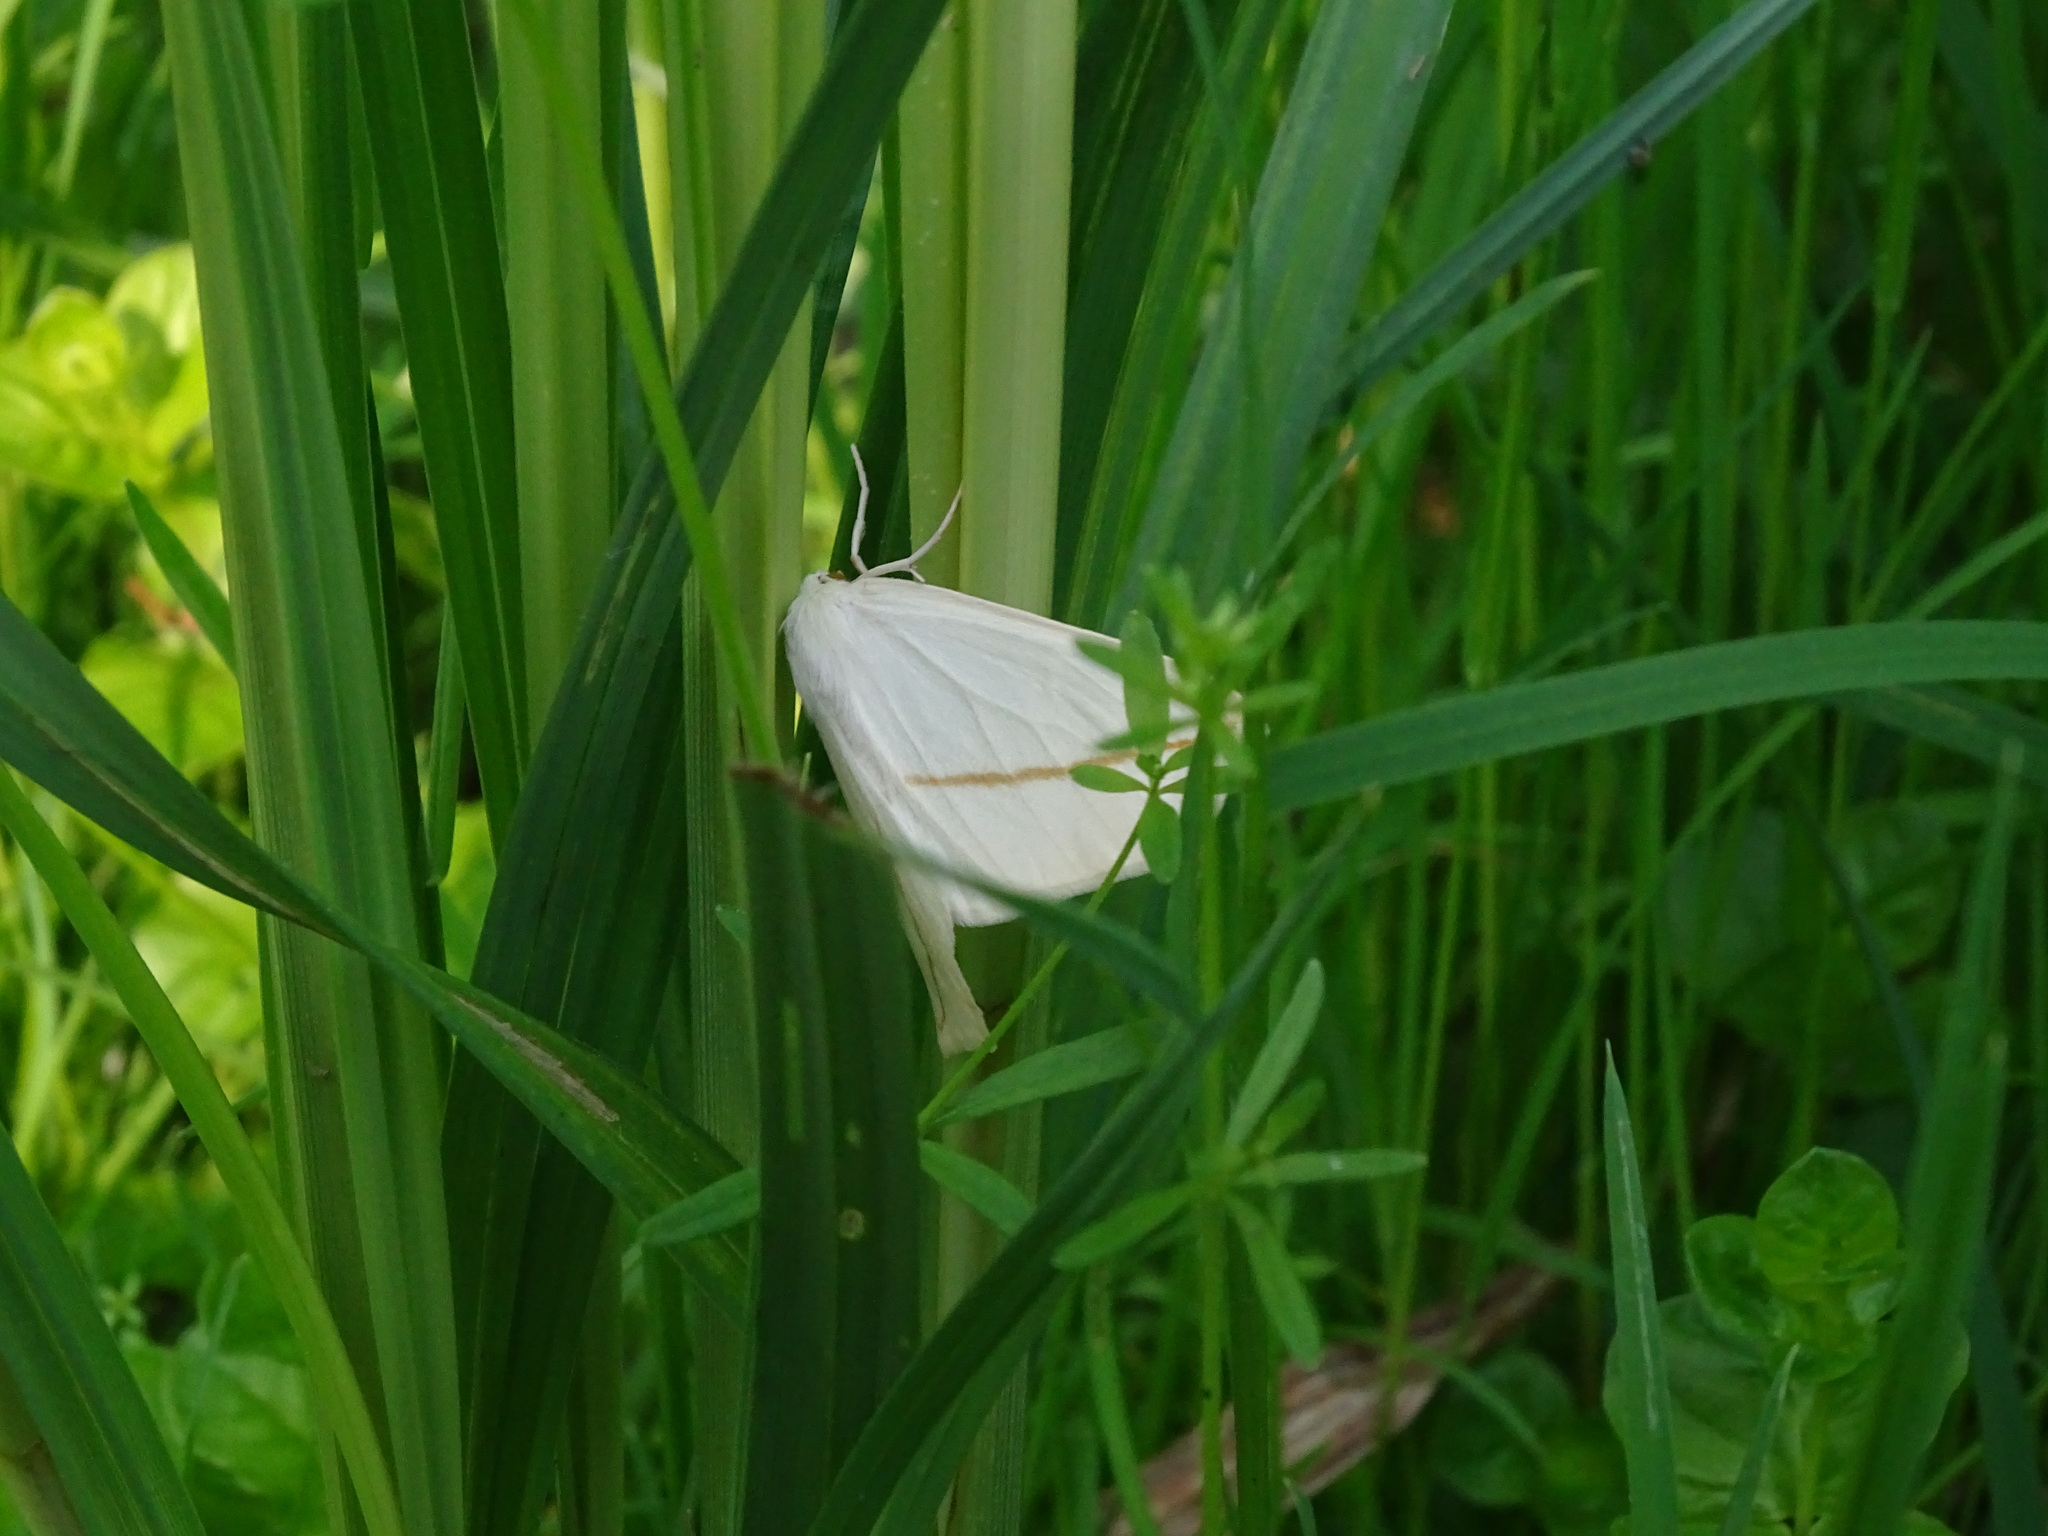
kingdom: Animalia
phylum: Arthropoda
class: Insecta
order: Lepidoptera
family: Geometridae
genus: Tetracis
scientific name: Tetracis cachexiata
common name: White slant-line
